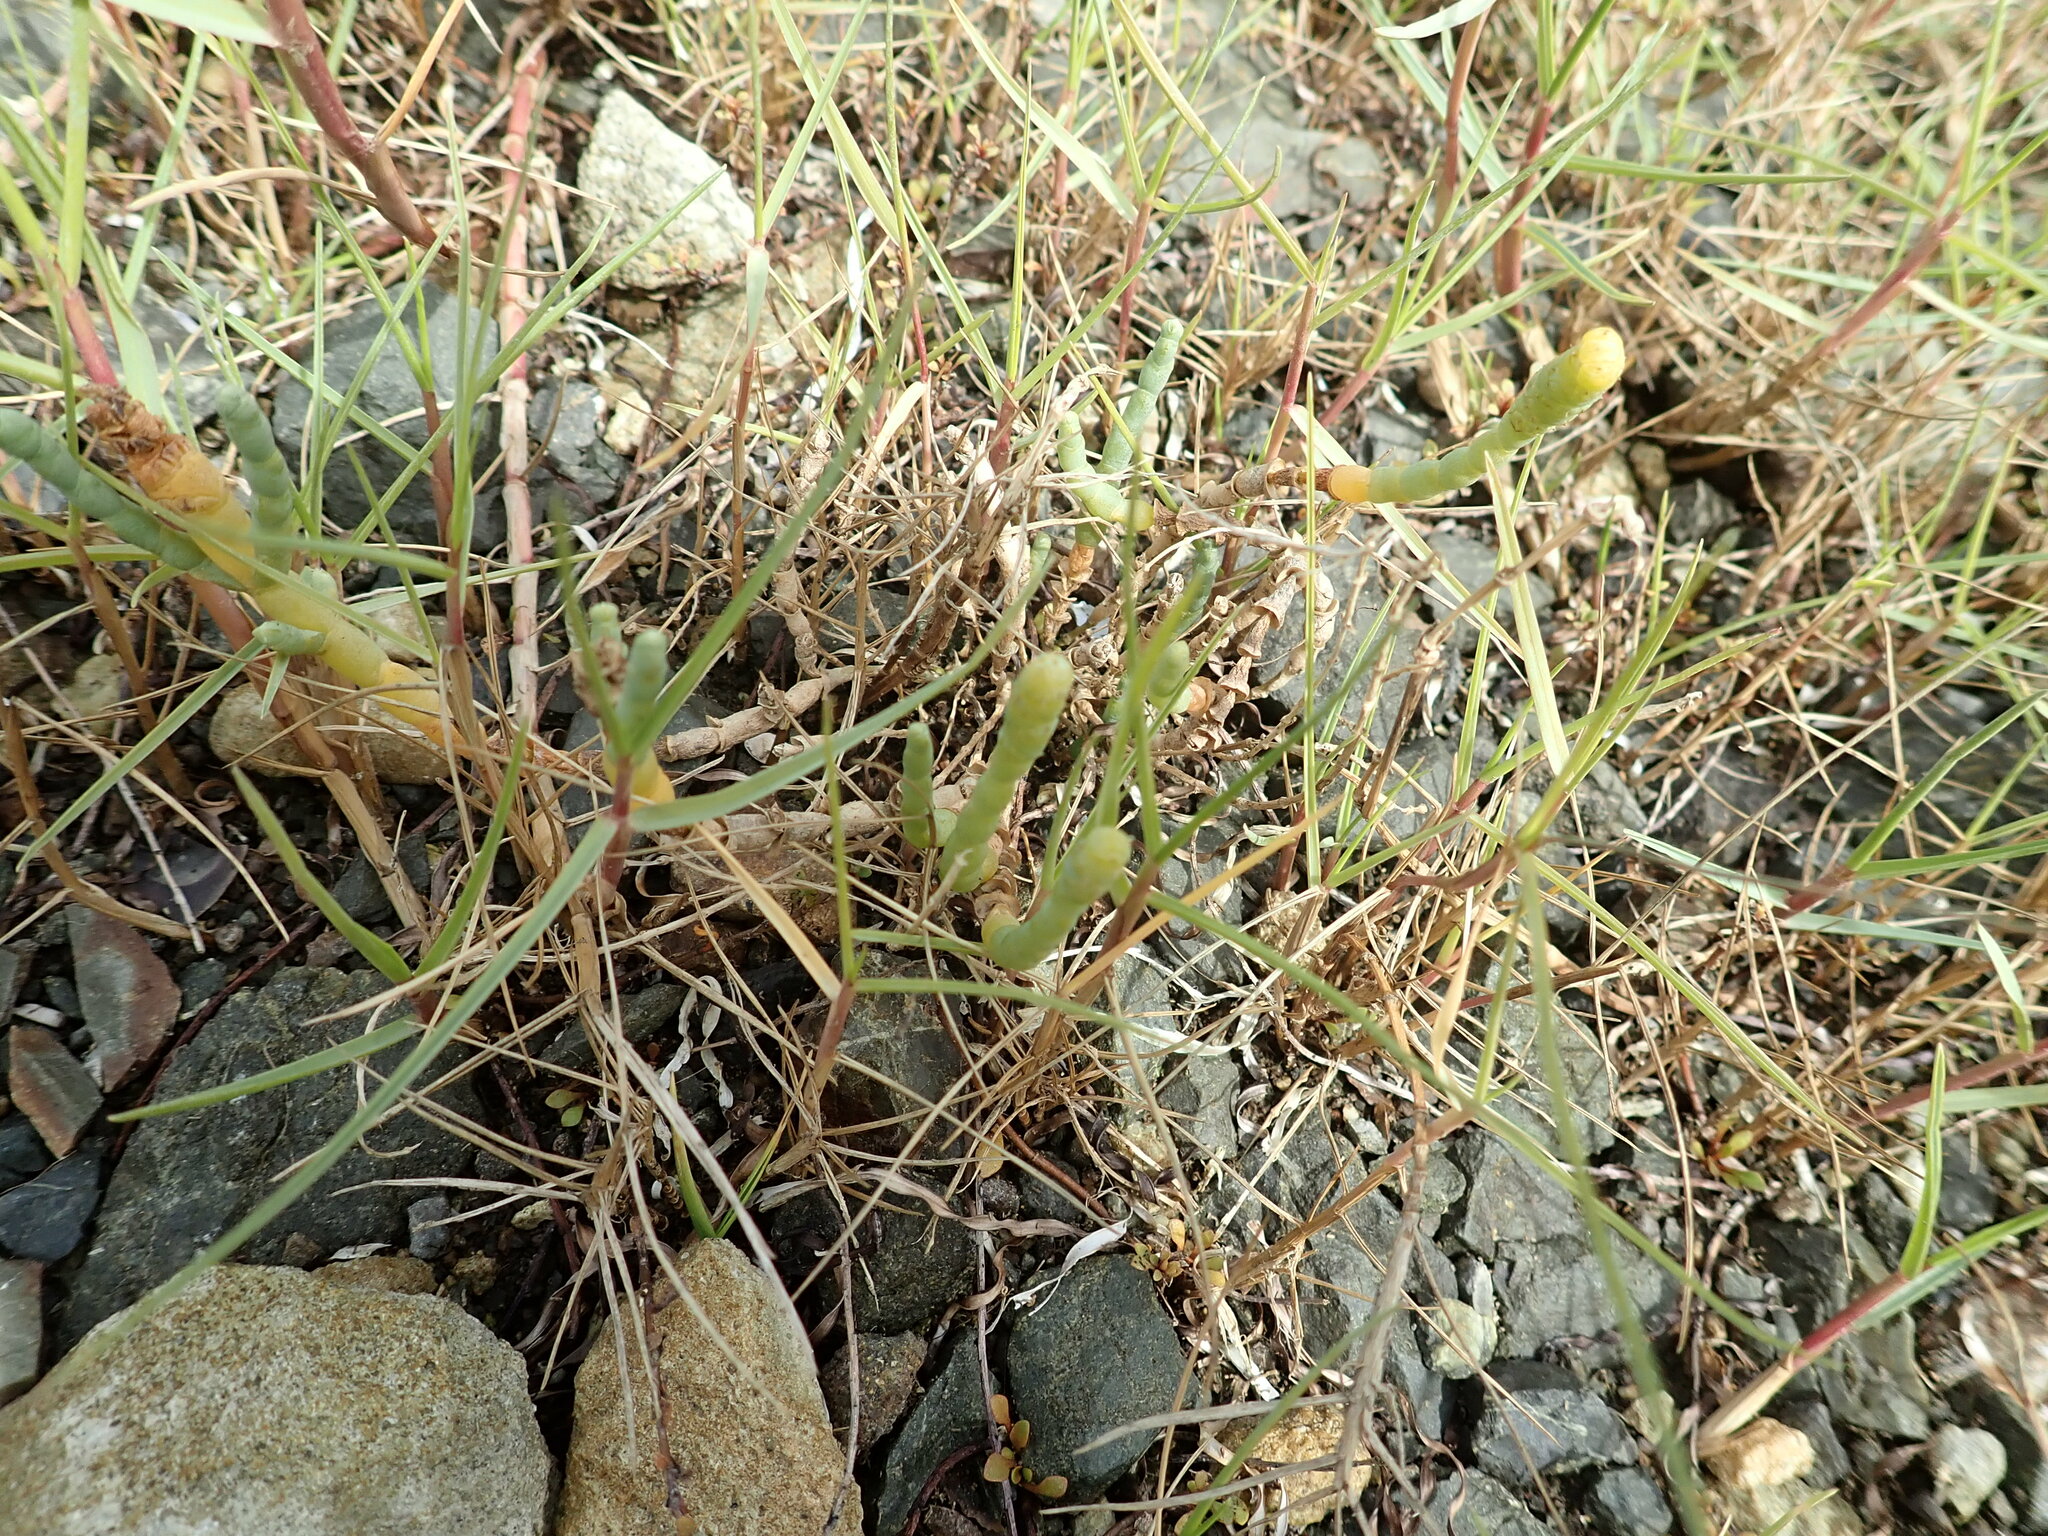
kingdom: Plantae
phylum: Tracheophyta
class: Magnoliopsida
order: Caryophyllales
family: Amaranthaceae
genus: Salicornia
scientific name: Salicornia quinqueflora
